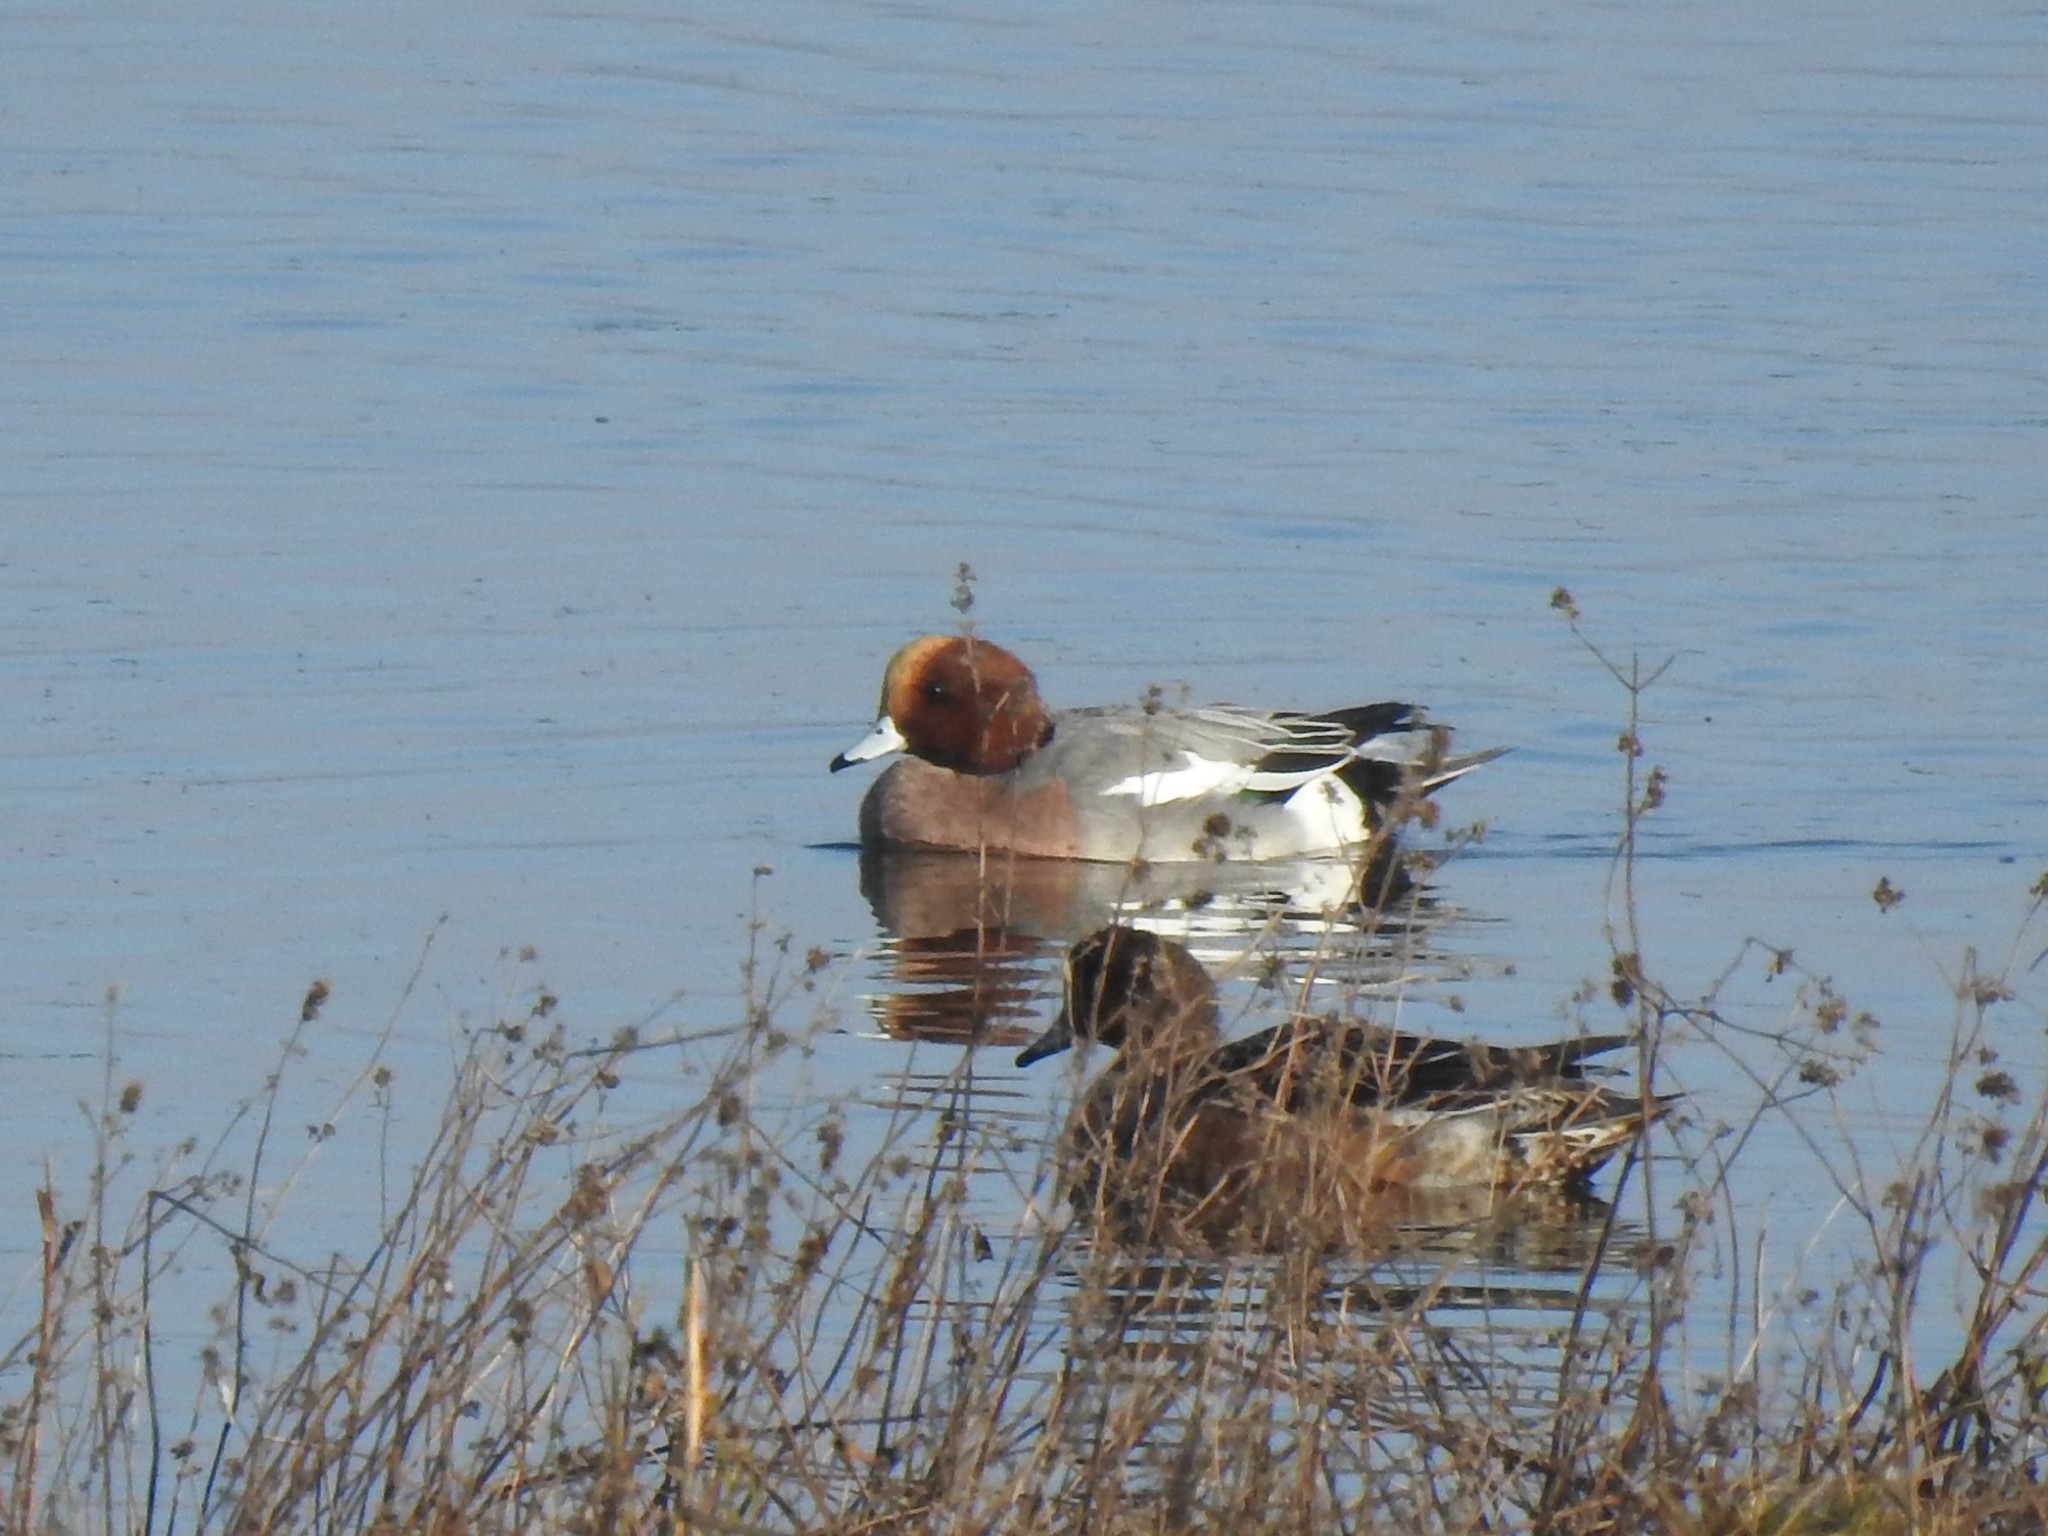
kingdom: Animalia
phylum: Chordata
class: Aves
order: Anseriformes
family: Anatidae
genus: Mareca
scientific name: Mareca penelope
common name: Eurasian wigeon
